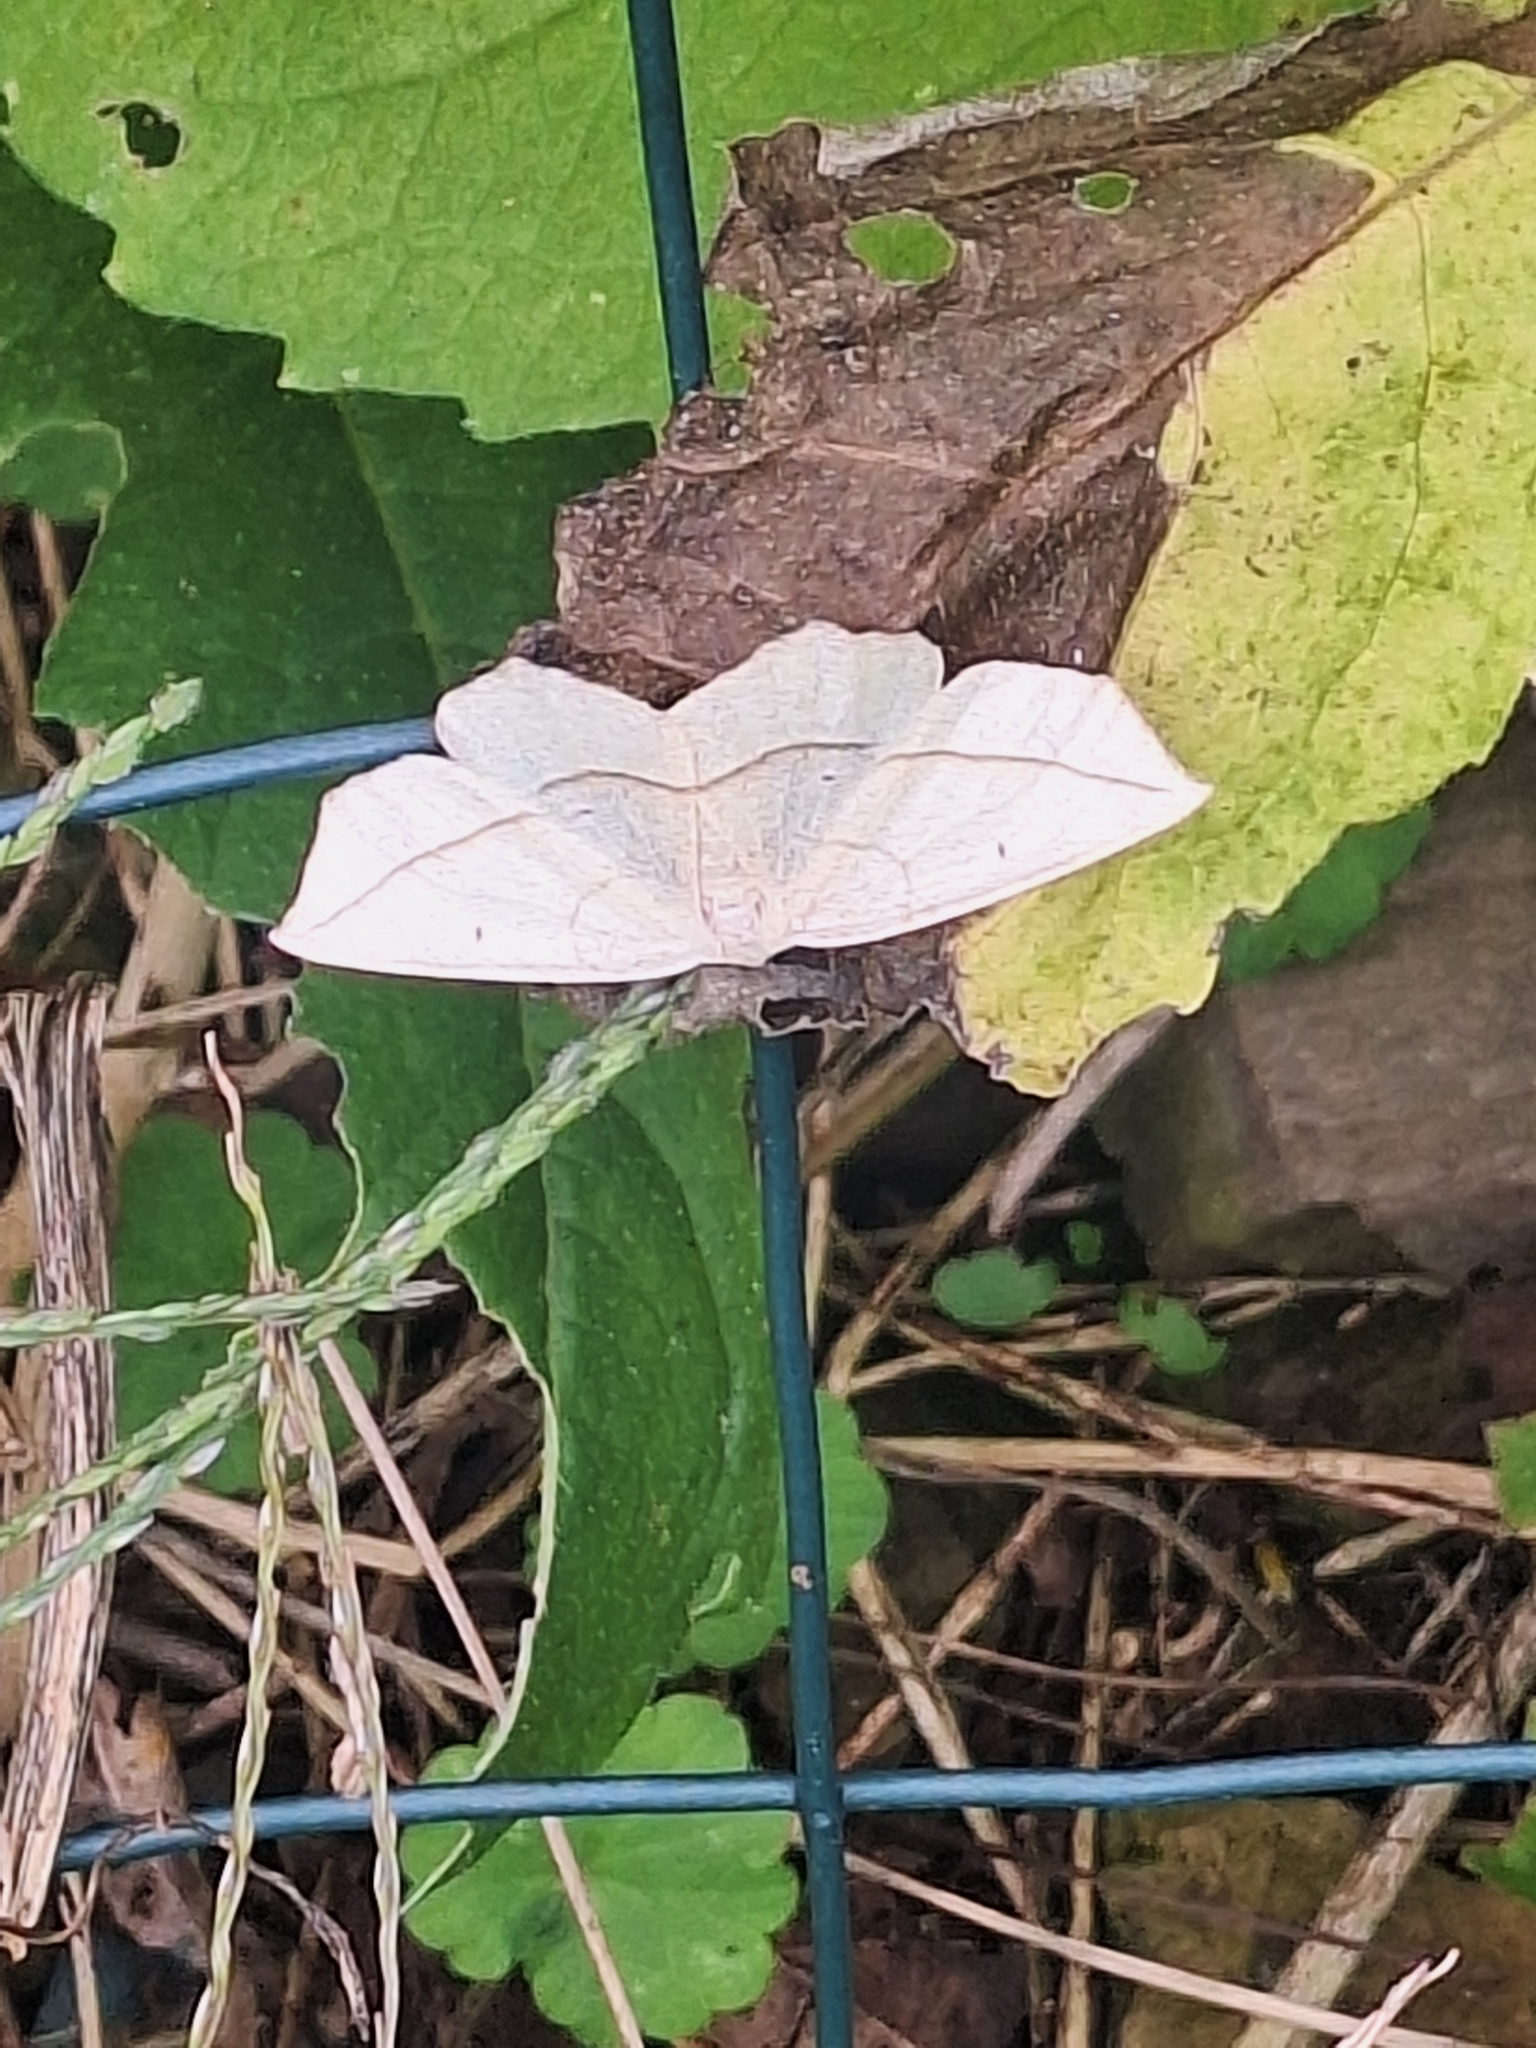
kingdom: Animalia
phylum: Arthropoda
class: Insecta
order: Lepidoptera
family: Geometridae
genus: Eusarca
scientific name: Eusarca confusaria
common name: Confused eusarca
